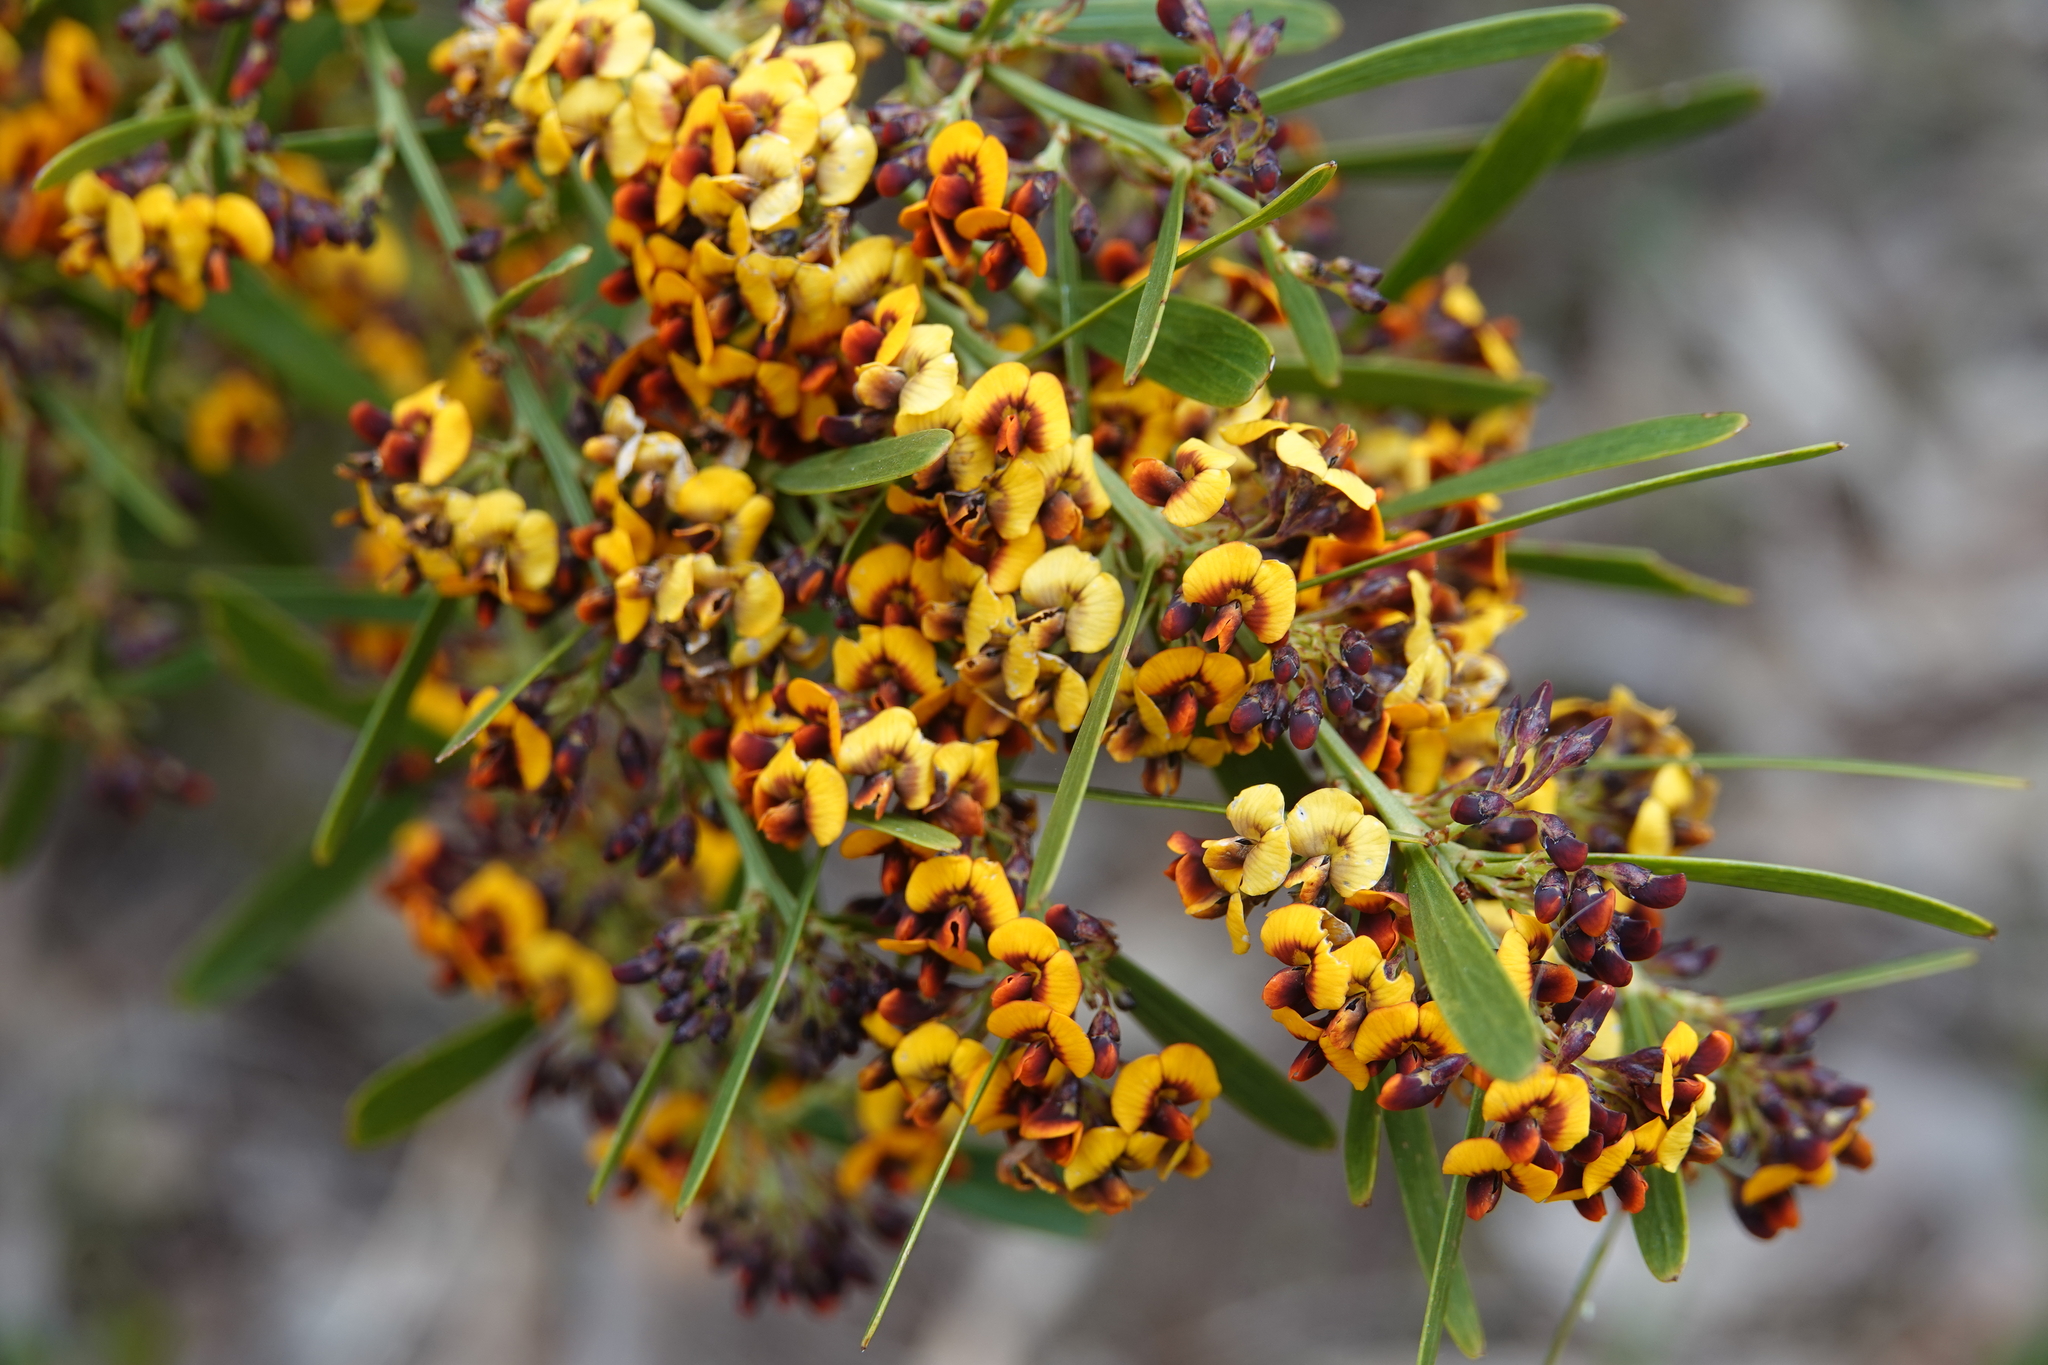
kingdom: Plantae
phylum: Tracheophyta
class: Magnoliopsida
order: Fabales
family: Fabaceae
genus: Daviesia
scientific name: Daviesia leptophylla
